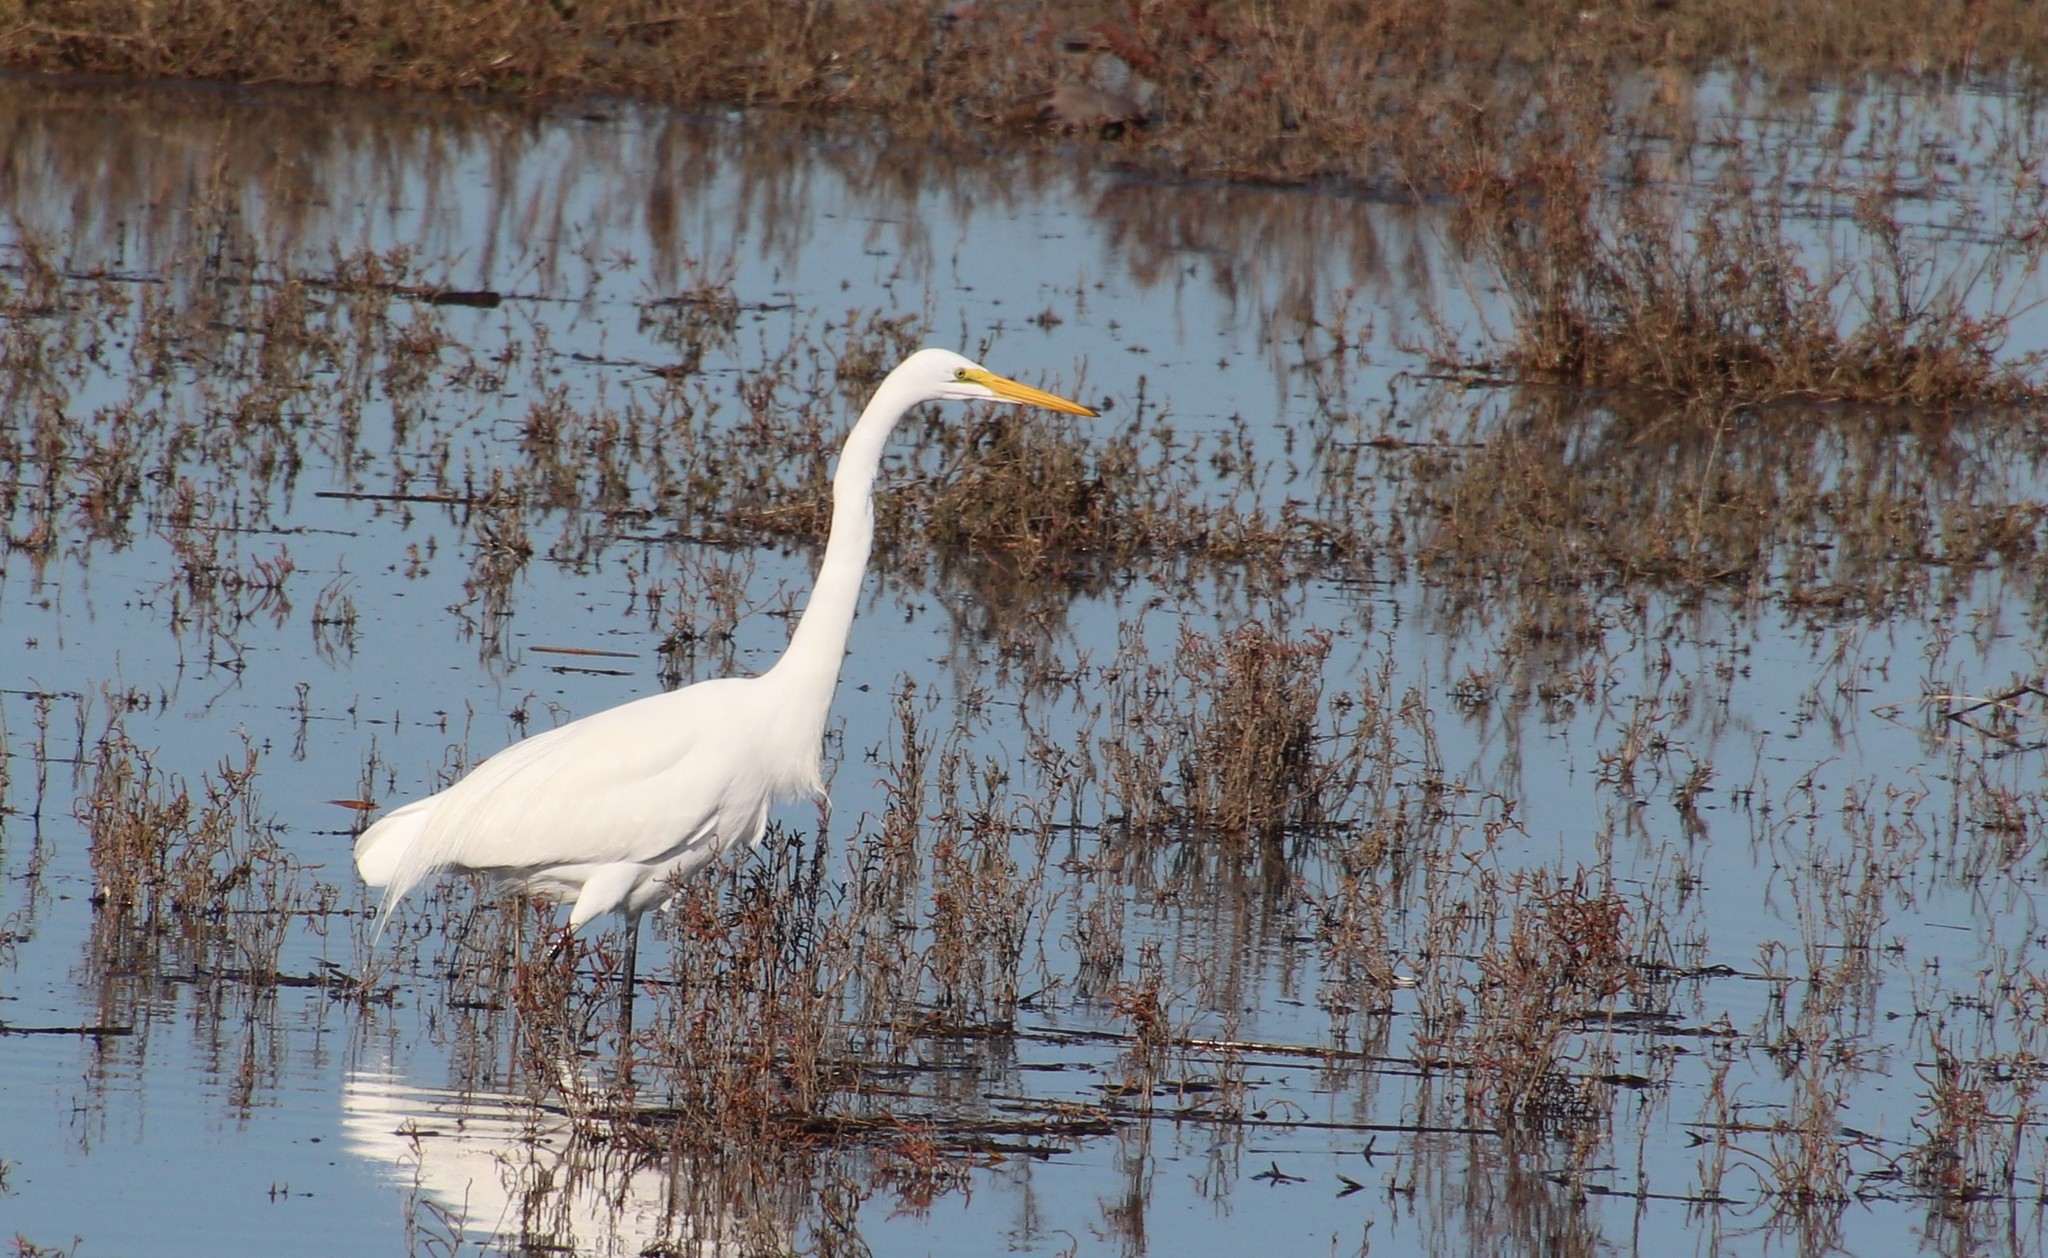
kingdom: Animalia
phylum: Chordata
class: Aves
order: Pelecaniformes
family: Ardeidae
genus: Ardea
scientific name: Ardea alba
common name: Great egret
